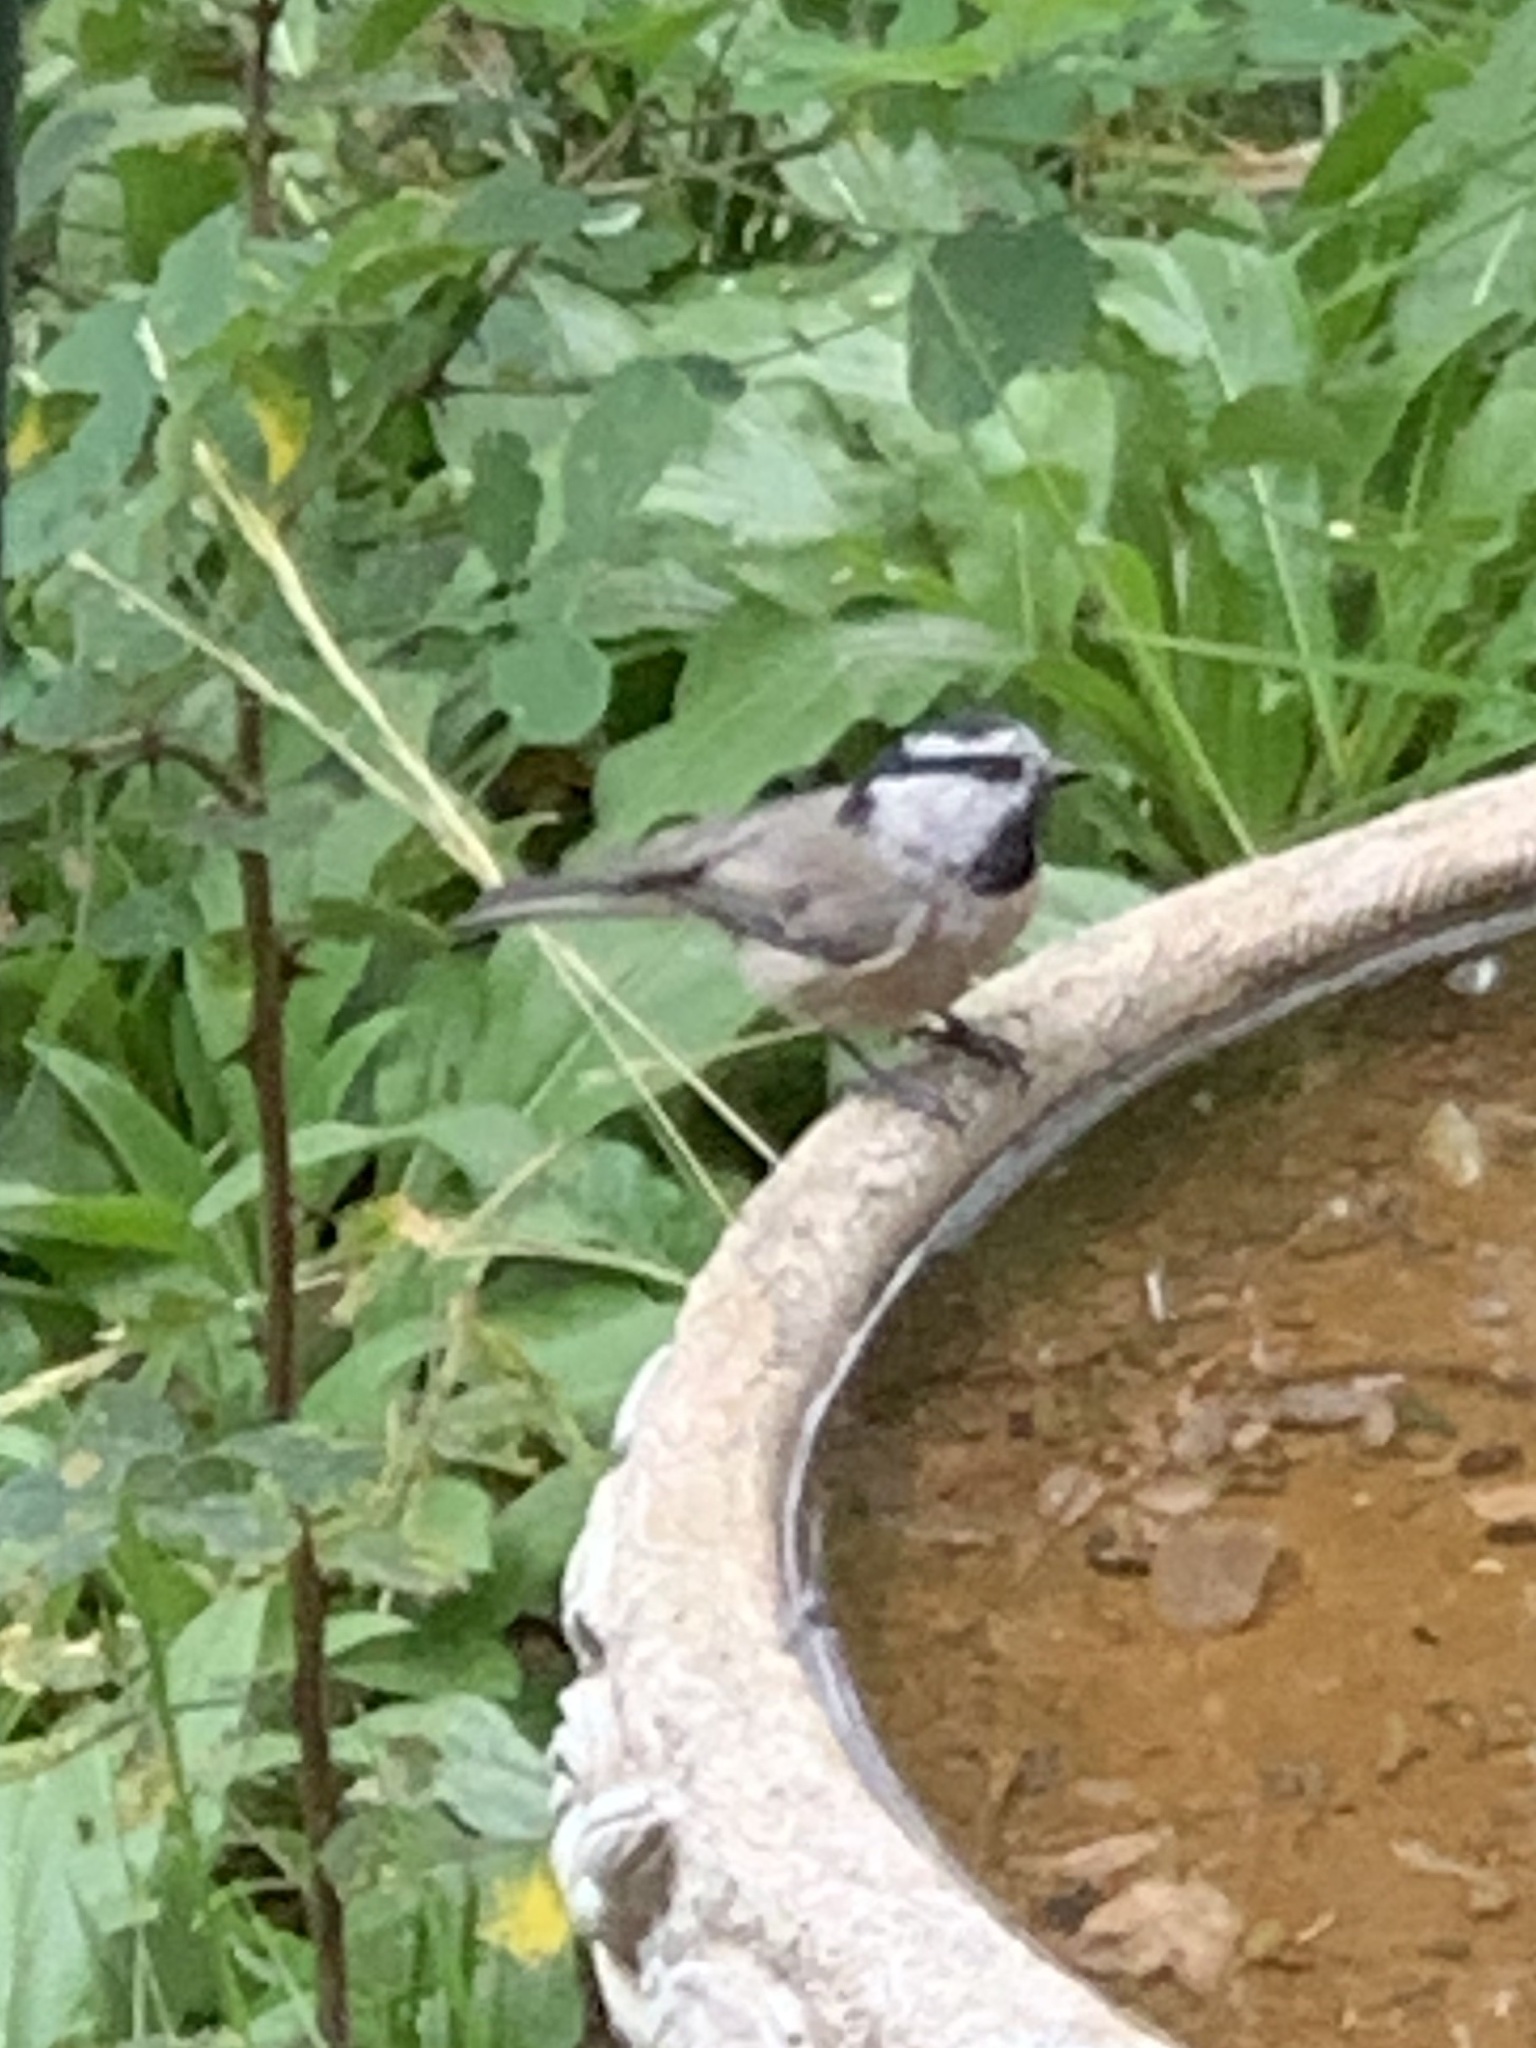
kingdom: Animalia
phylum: Chordata
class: Aves
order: Passeriformes
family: Paridae
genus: Poecile
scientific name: Poecile gambeli
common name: Mountain chickadee
